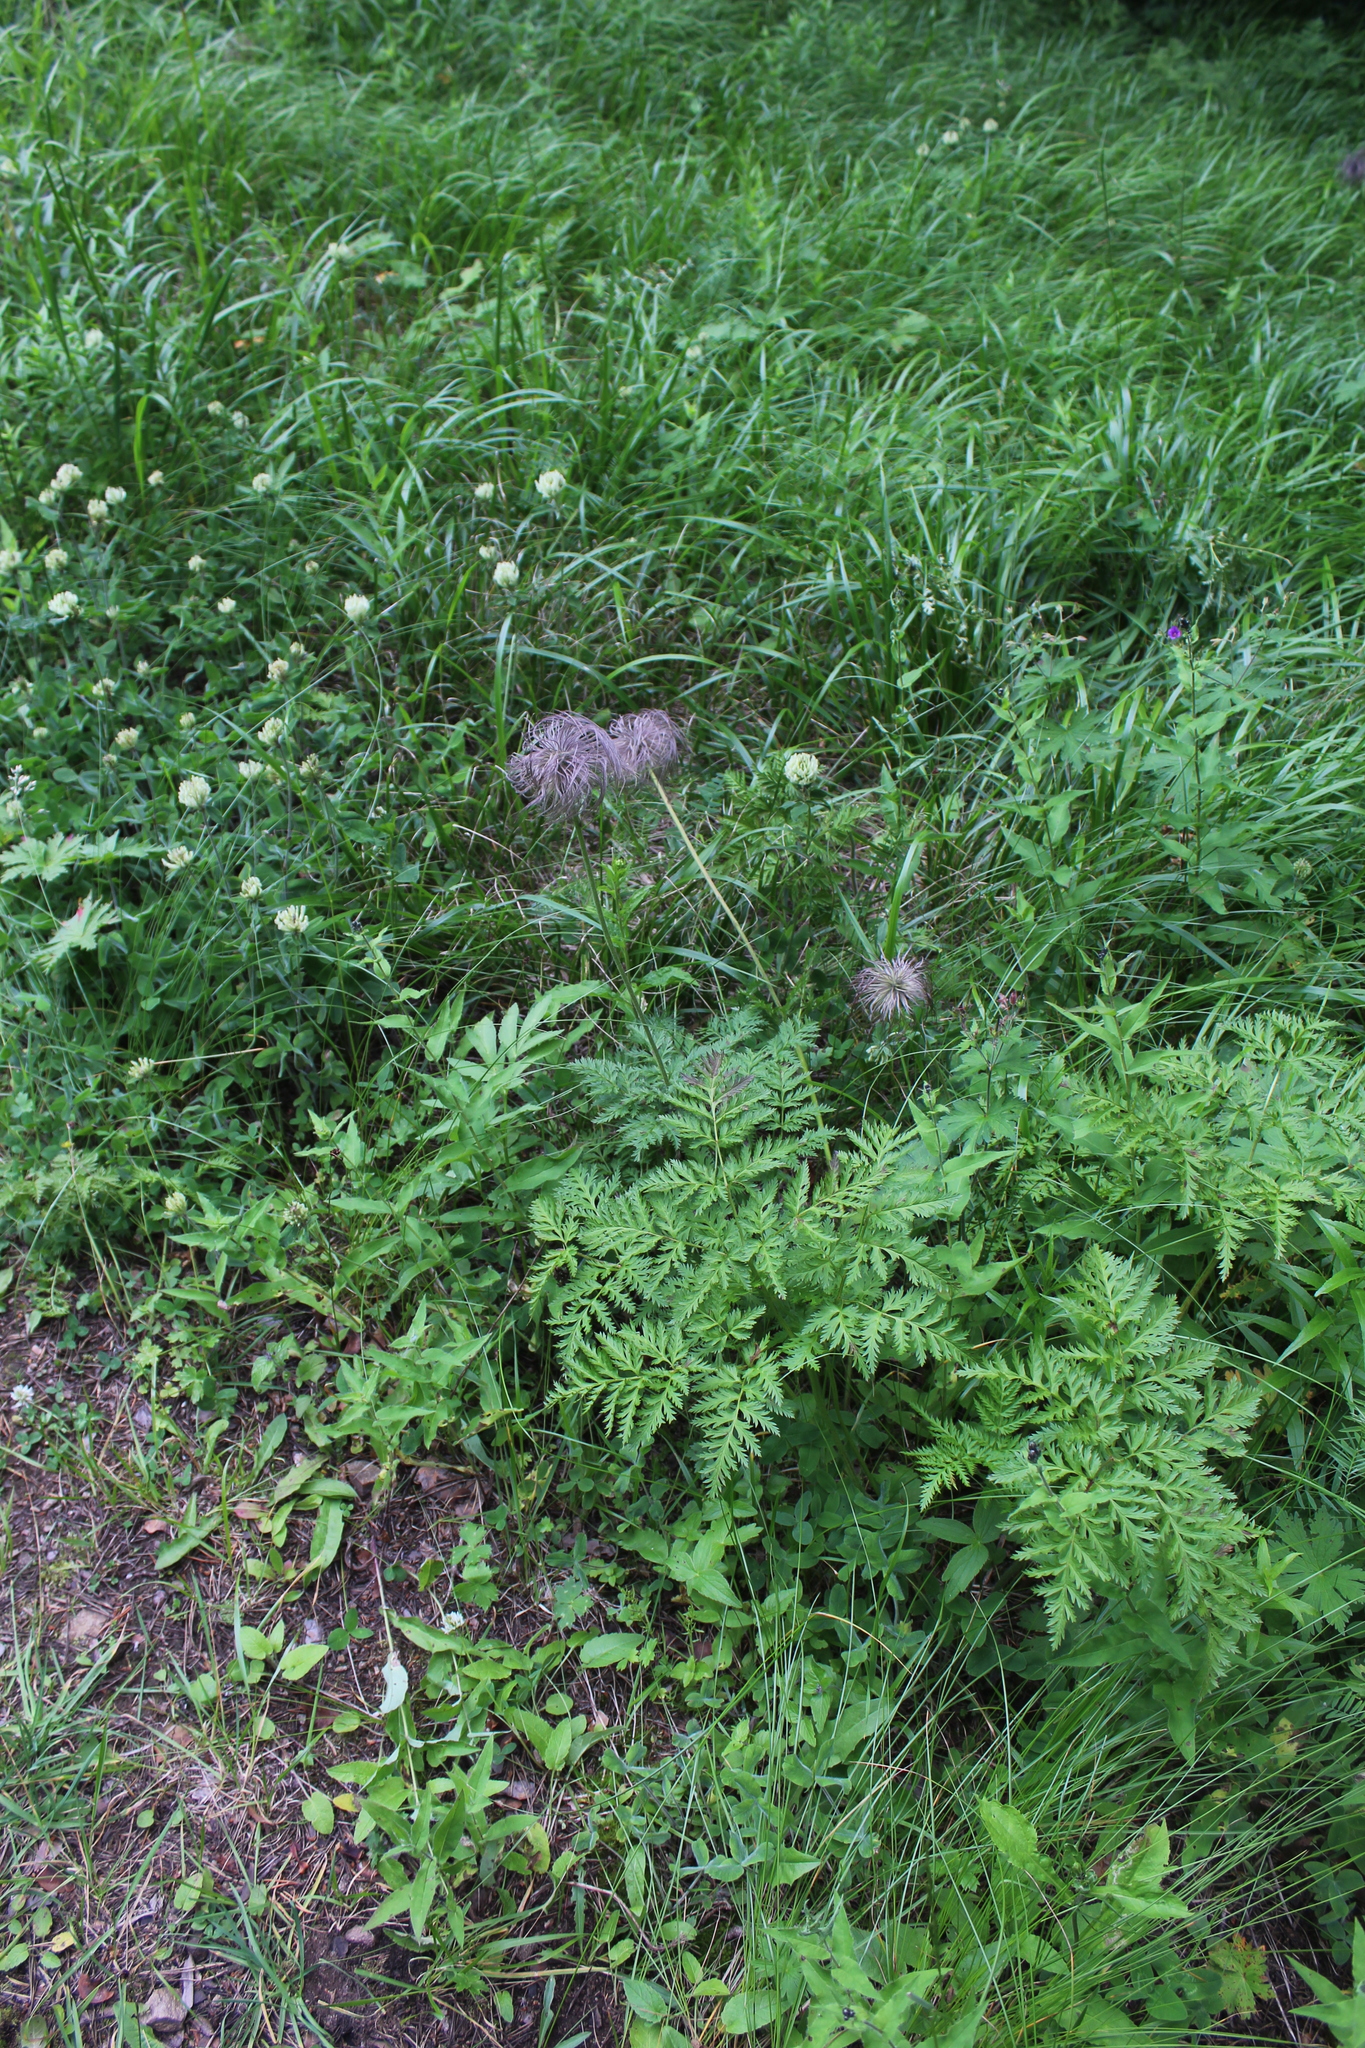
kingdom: Plantae
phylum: Tracheophyta
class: Magnoliopsida
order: Ranunculales
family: Ranunculaceae
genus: Pulsatilla
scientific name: Pulsatilla aurea
